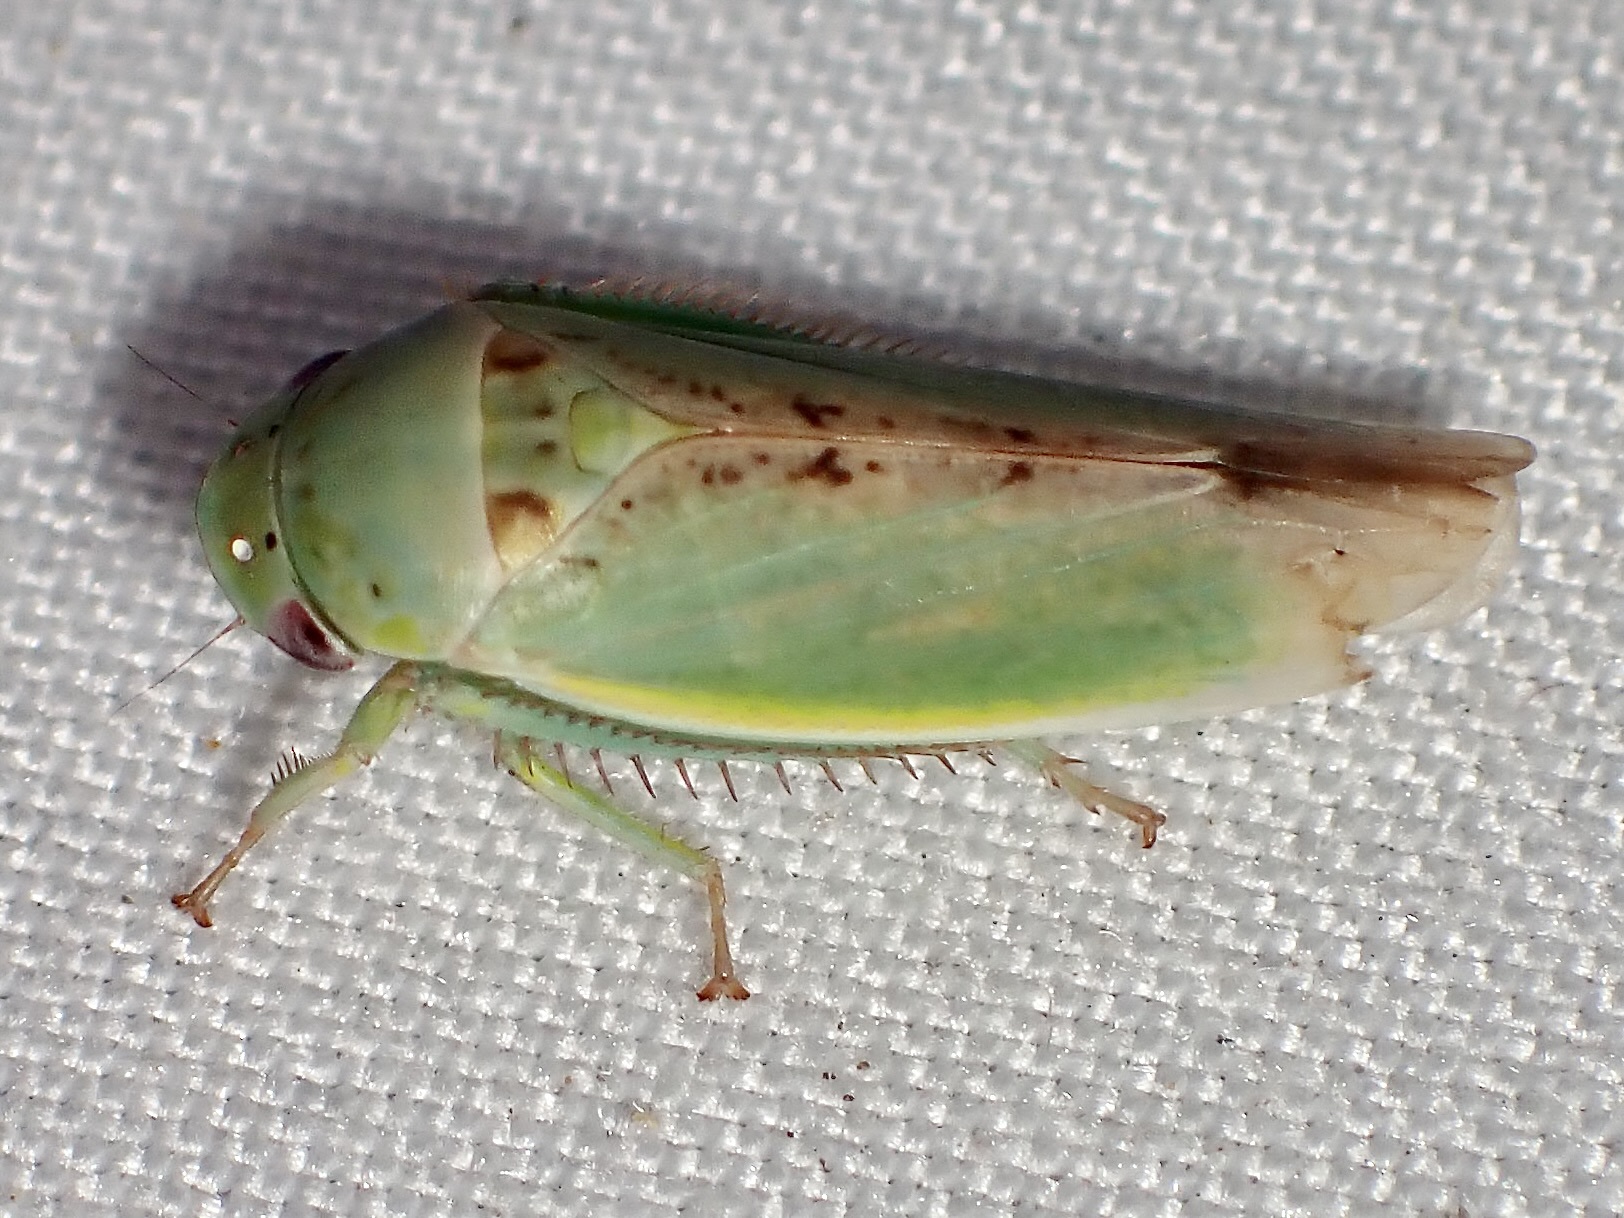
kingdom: Animalia
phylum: Arthropoda
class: Insecta
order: Hemiptera
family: Cicadellidae
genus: Hamana
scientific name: Hamana dictitoria
